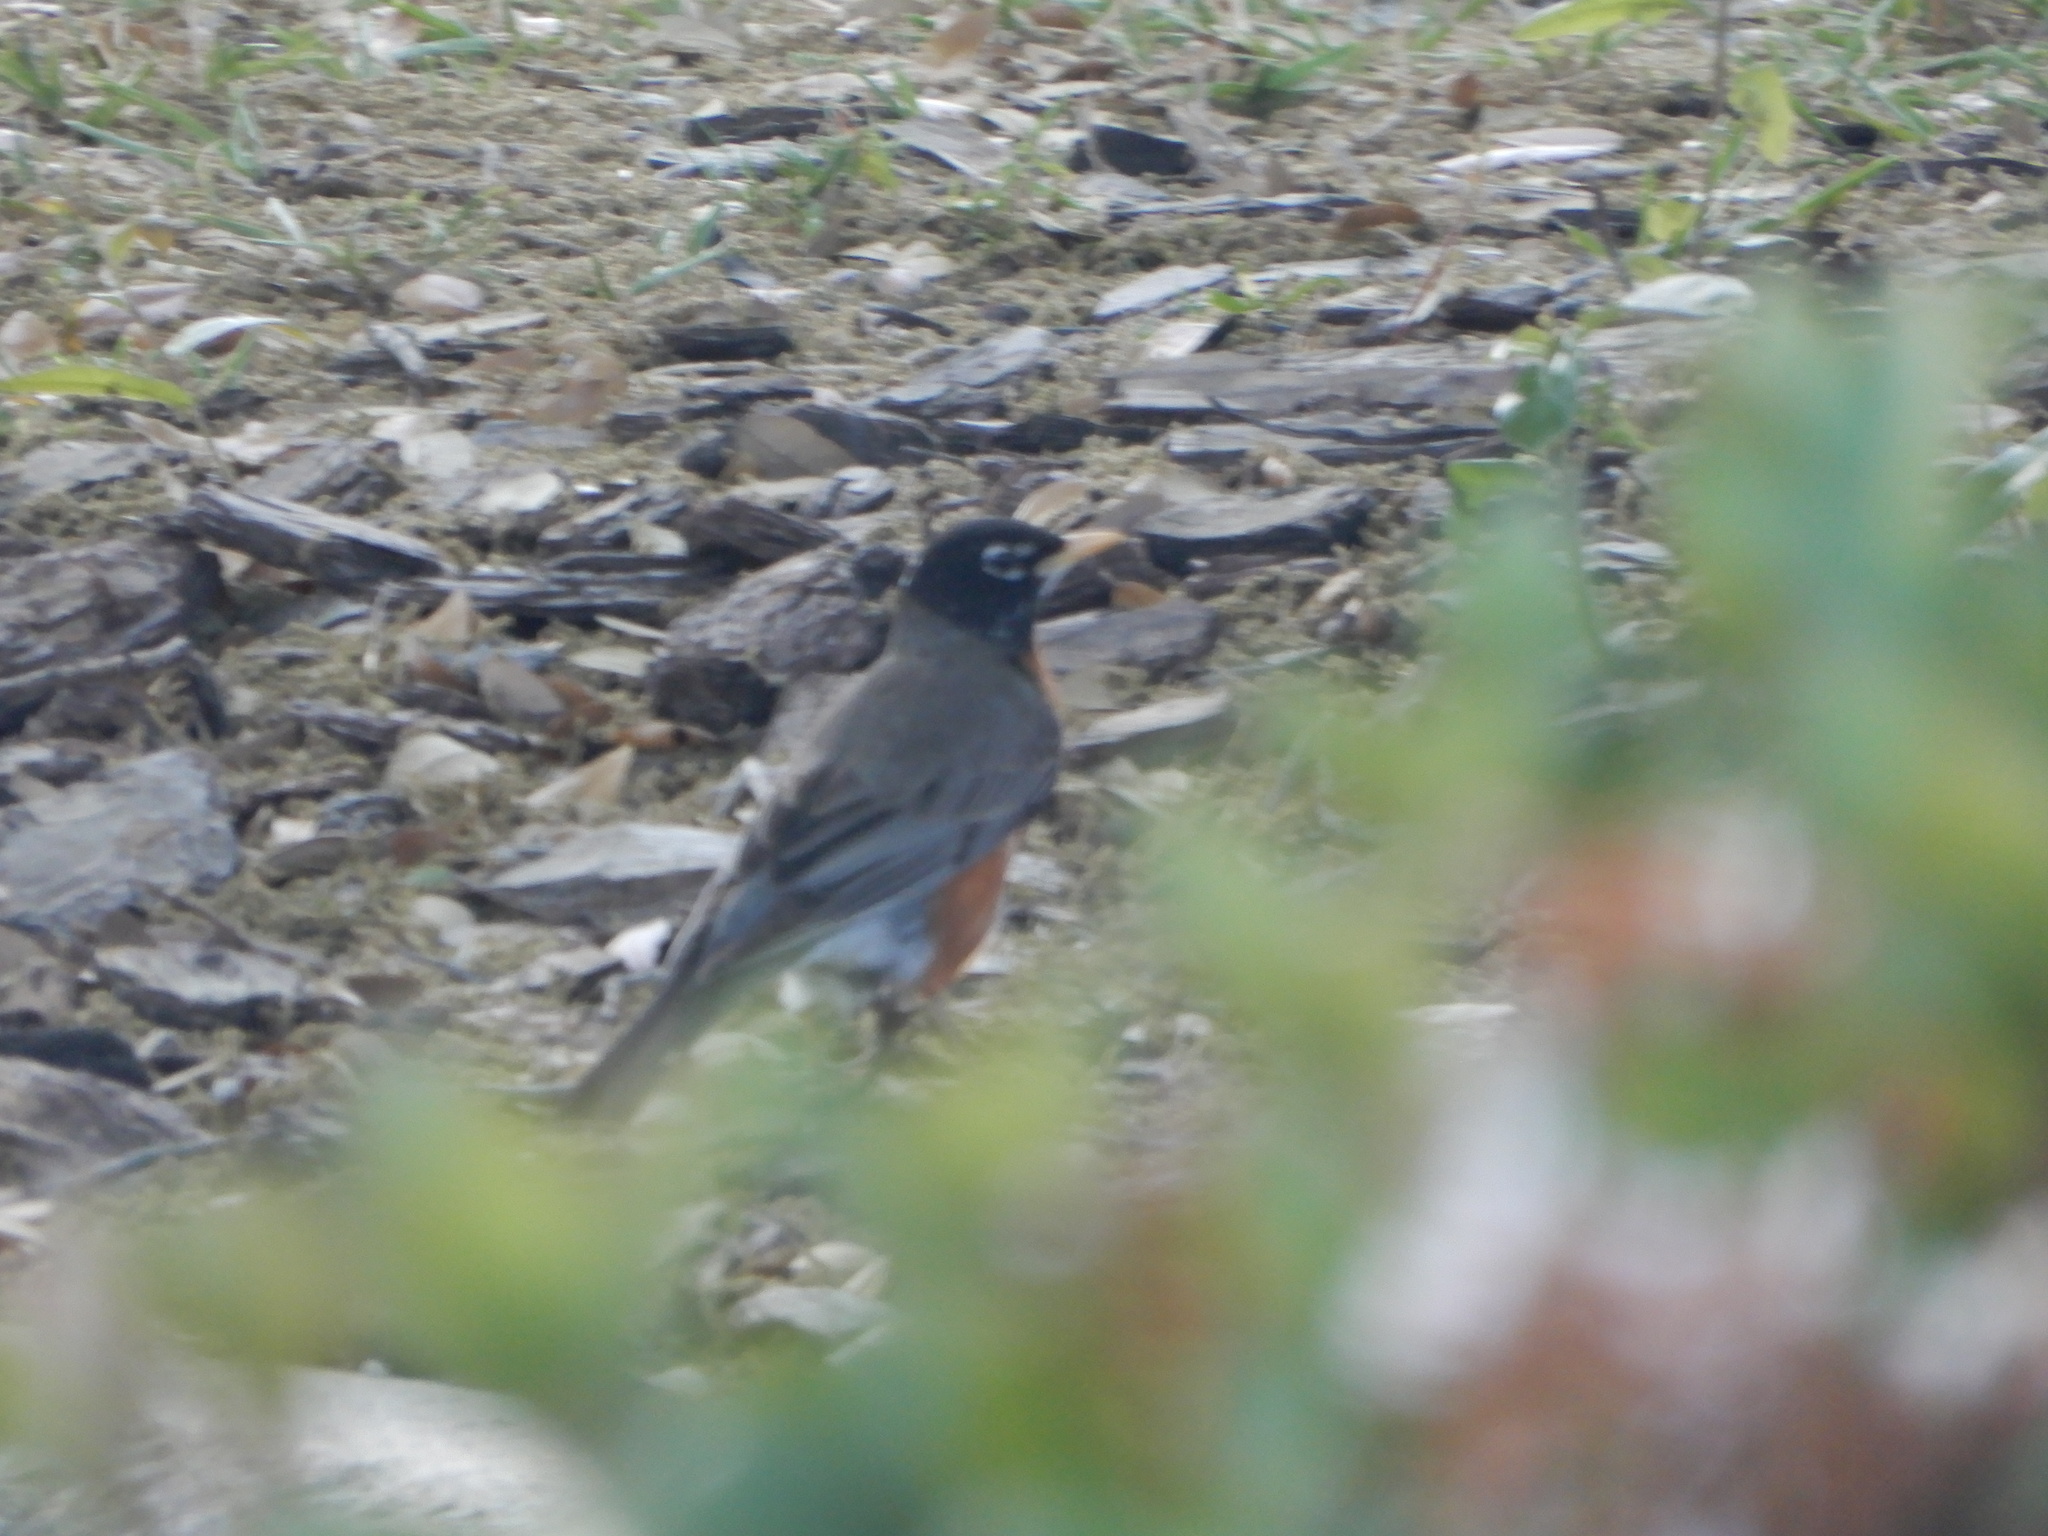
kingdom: Animalia
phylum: Chordata
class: Aves
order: Passeriformes
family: Turdidae
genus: Turdus
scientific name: Turdus migratorius
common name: American robin
